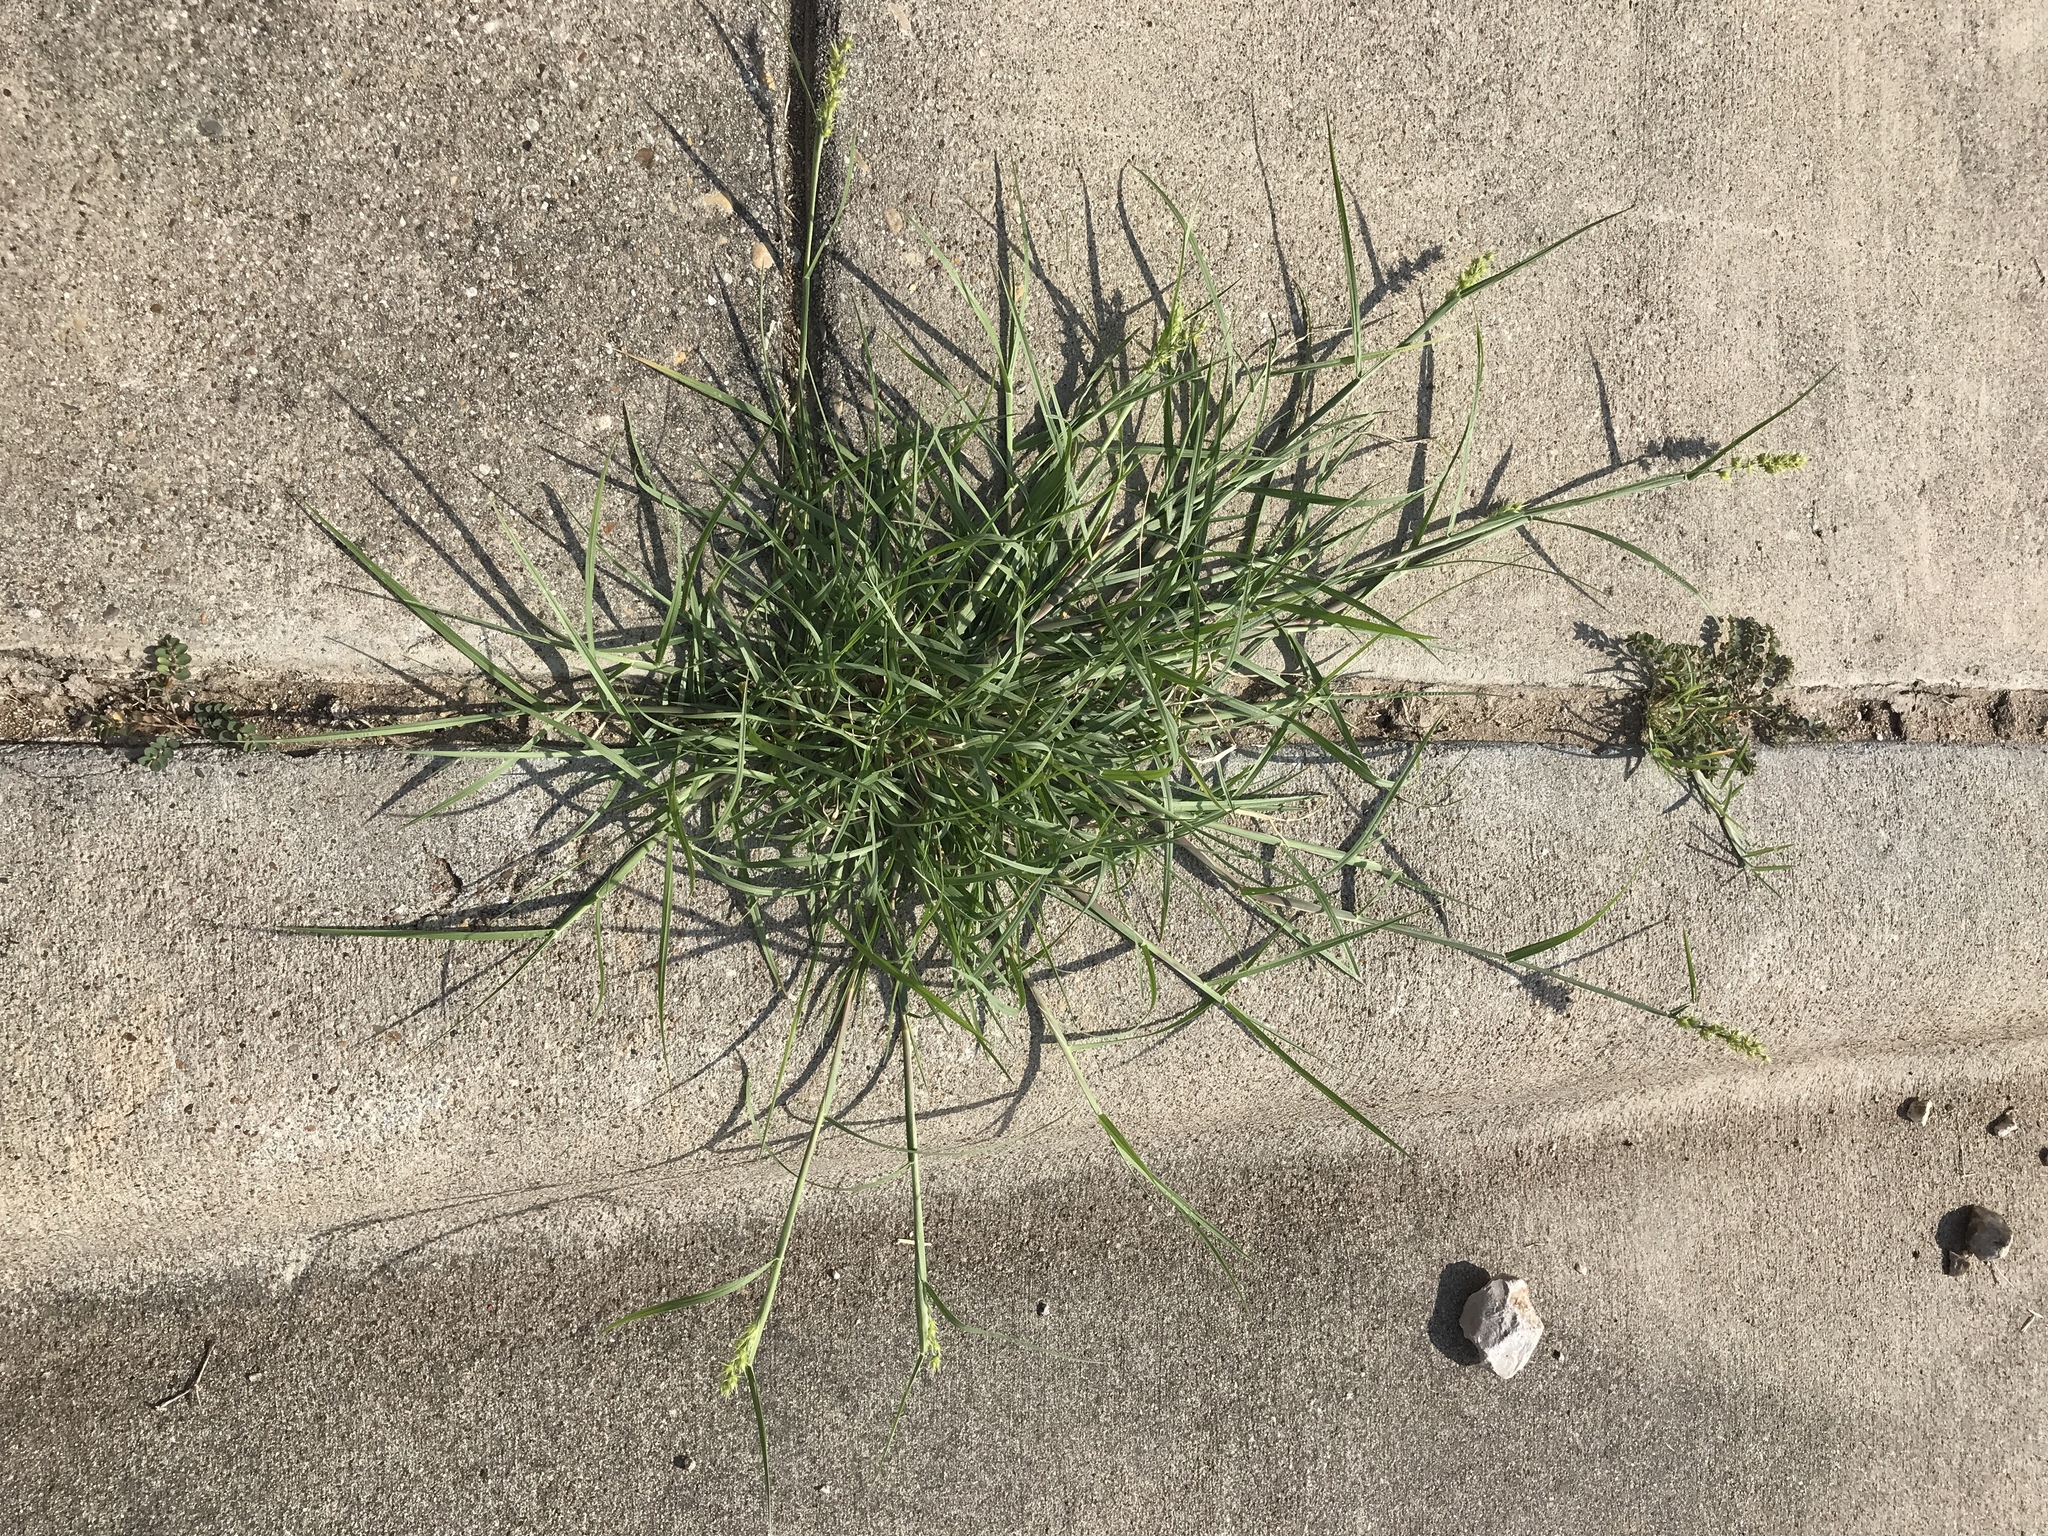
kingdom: Plantae
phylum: Tracheophyta
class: Liliopsida
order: Poales
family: Poaceae
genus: Cenchrus
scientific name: Cenchrus spinifex
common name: Coast sandbur
